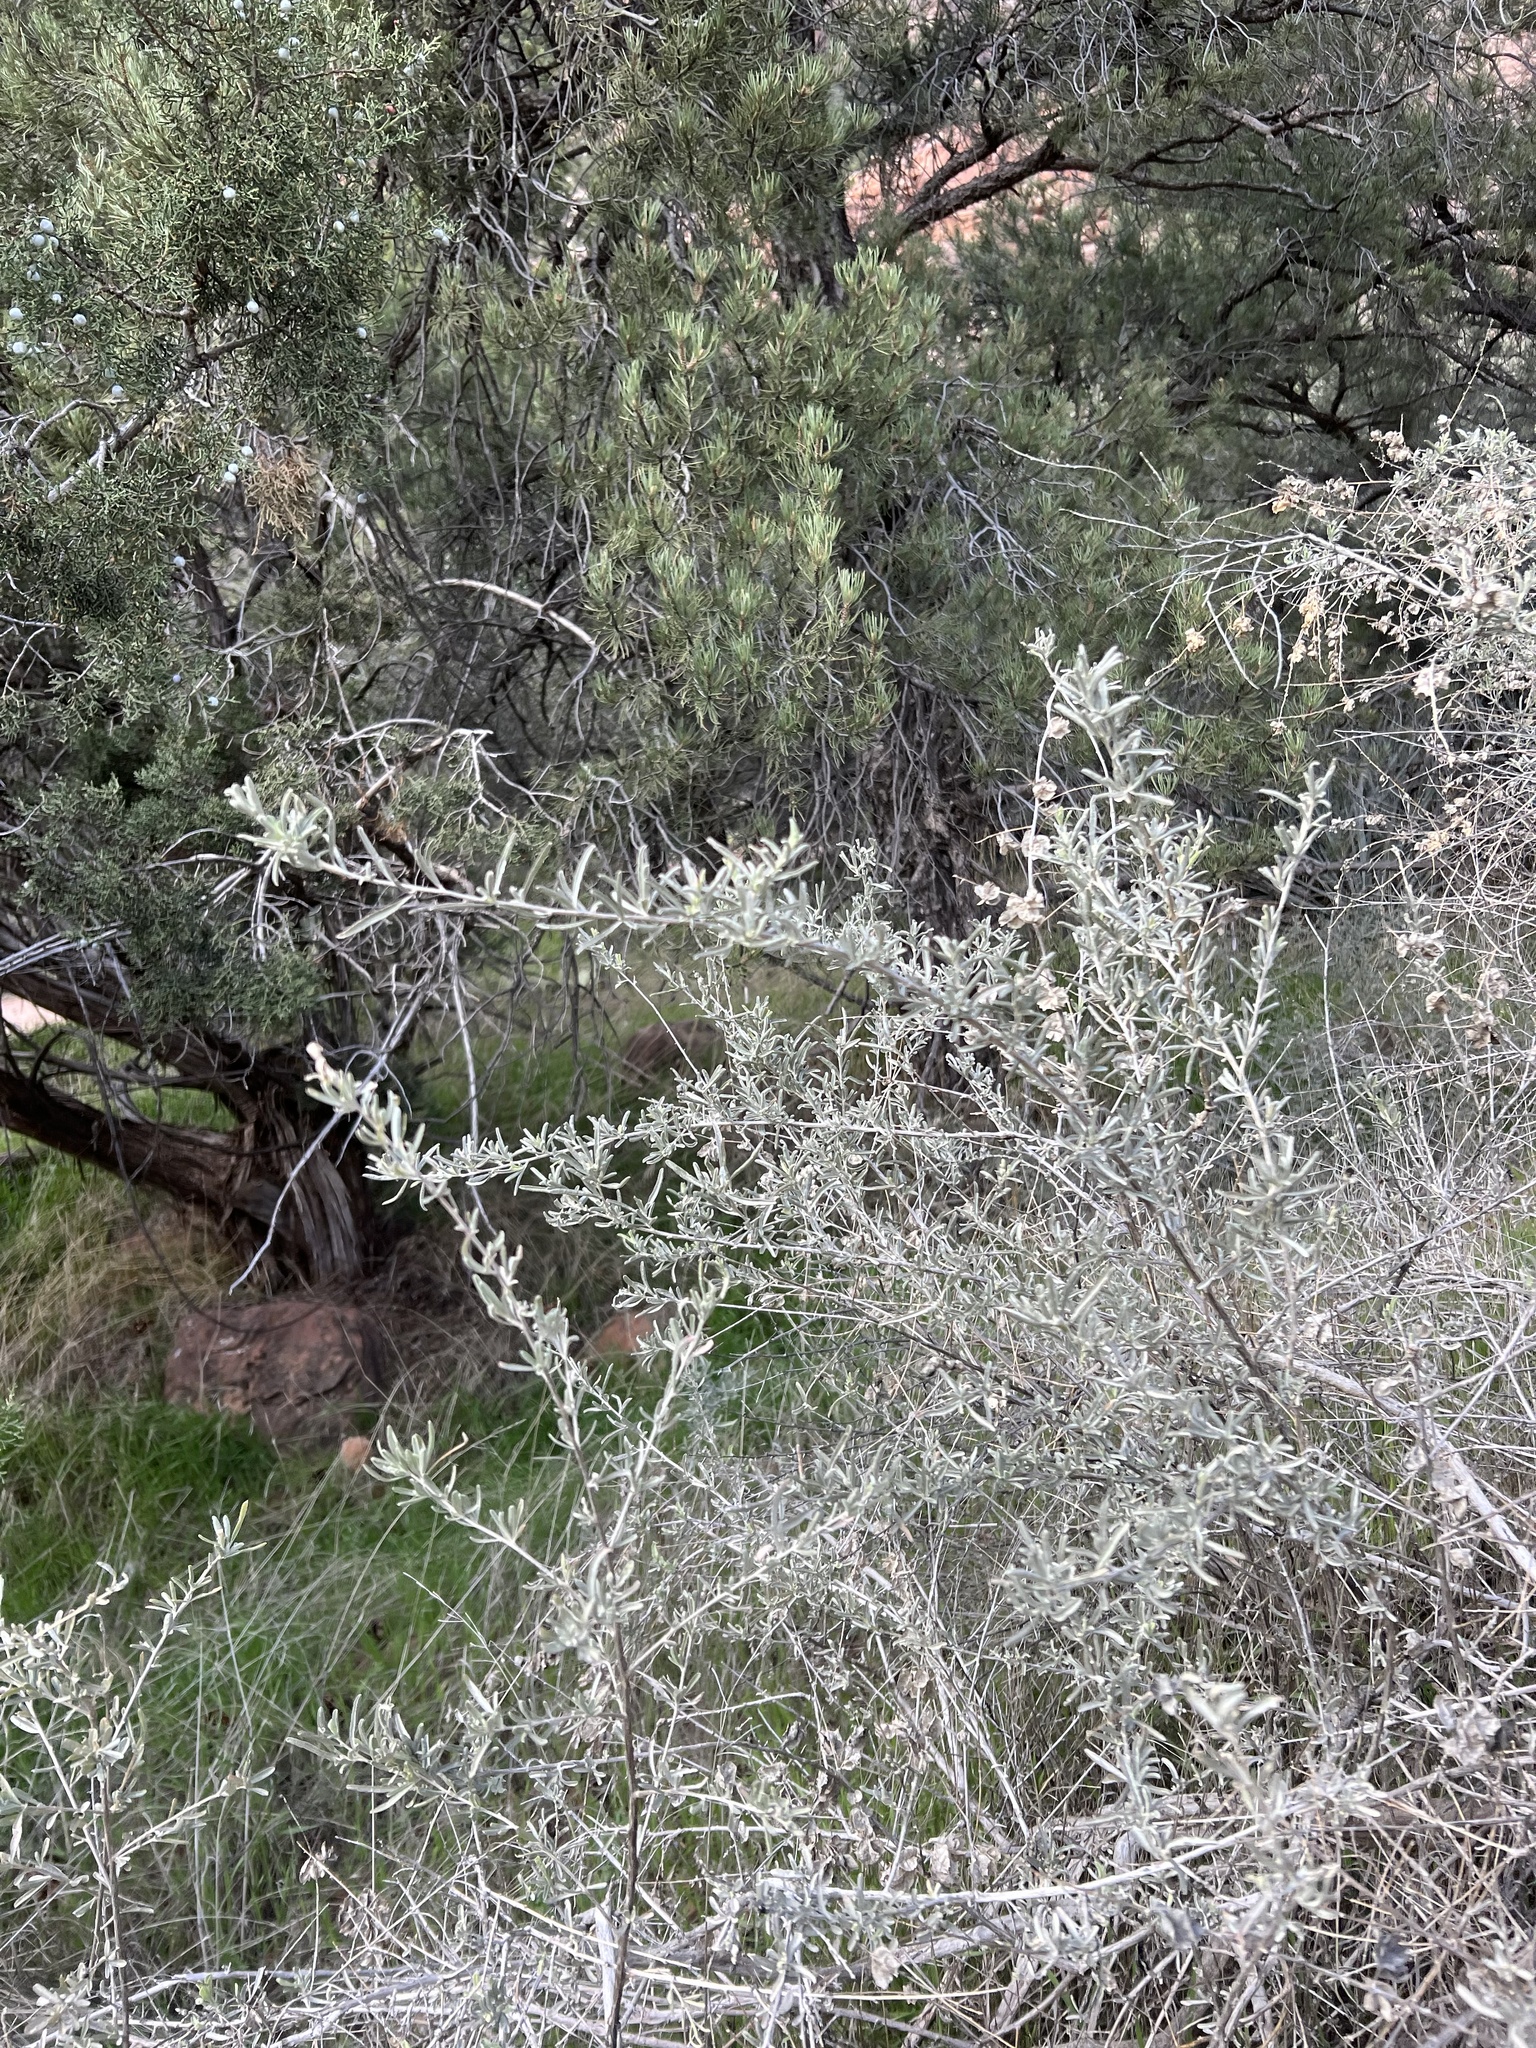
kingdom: Plantae
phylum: Tracheophyta
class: Magnoliopsida
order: Caryophyllales
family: Amaranthaceae
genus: Atriplex
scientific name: Atriplex canescens
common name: Four-wing saltbush
